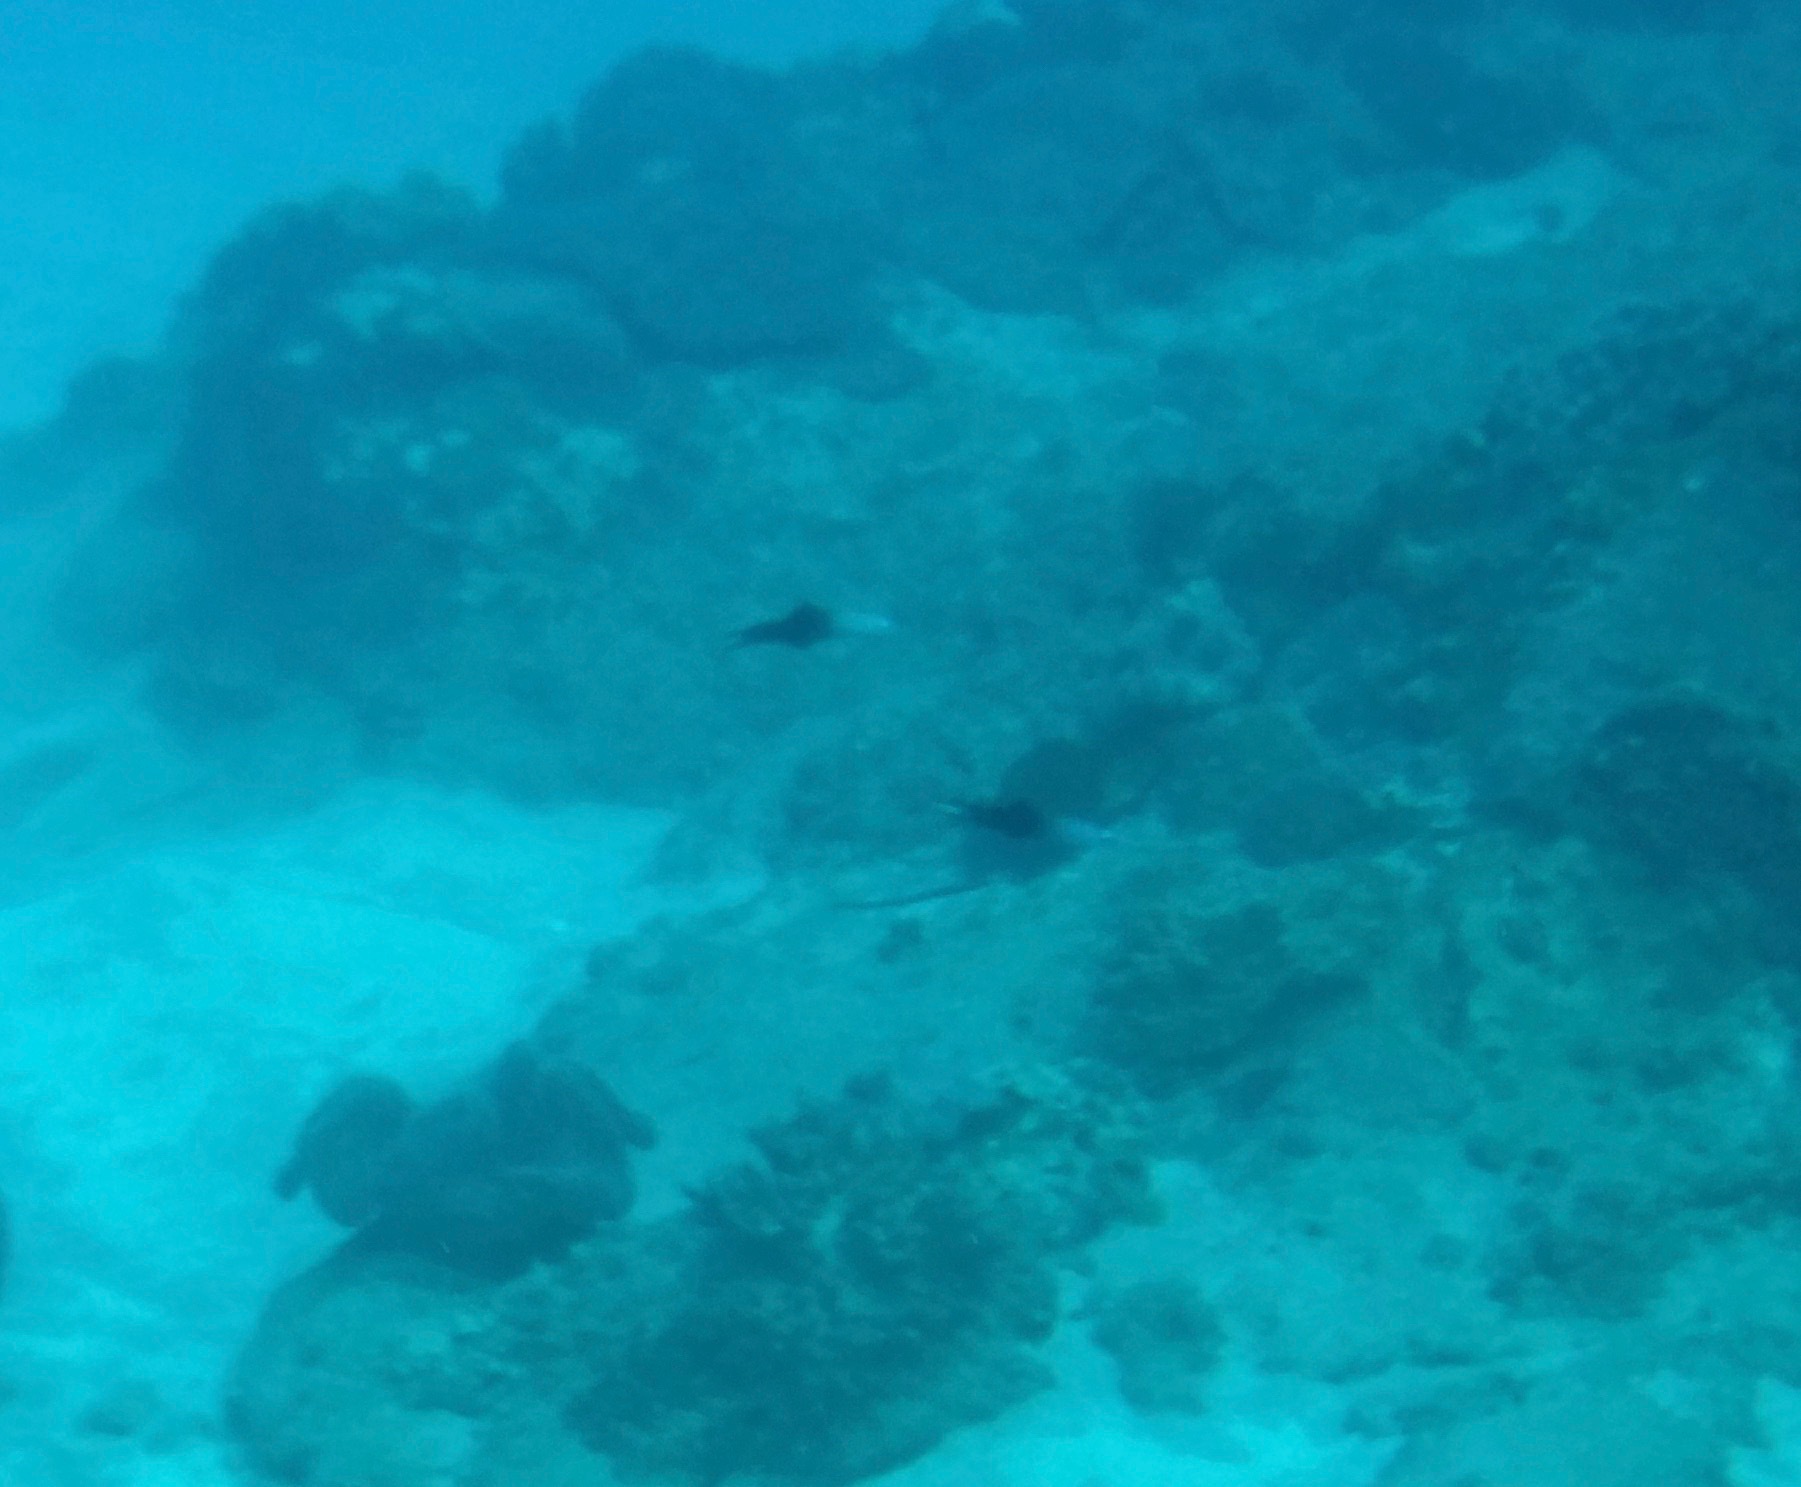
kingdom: Animalia
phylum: Chordata
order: Perciformes
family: Microdesmidae
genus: Ptereleotris
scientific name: Ptereleotris evides
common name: Blackfin dartfish
